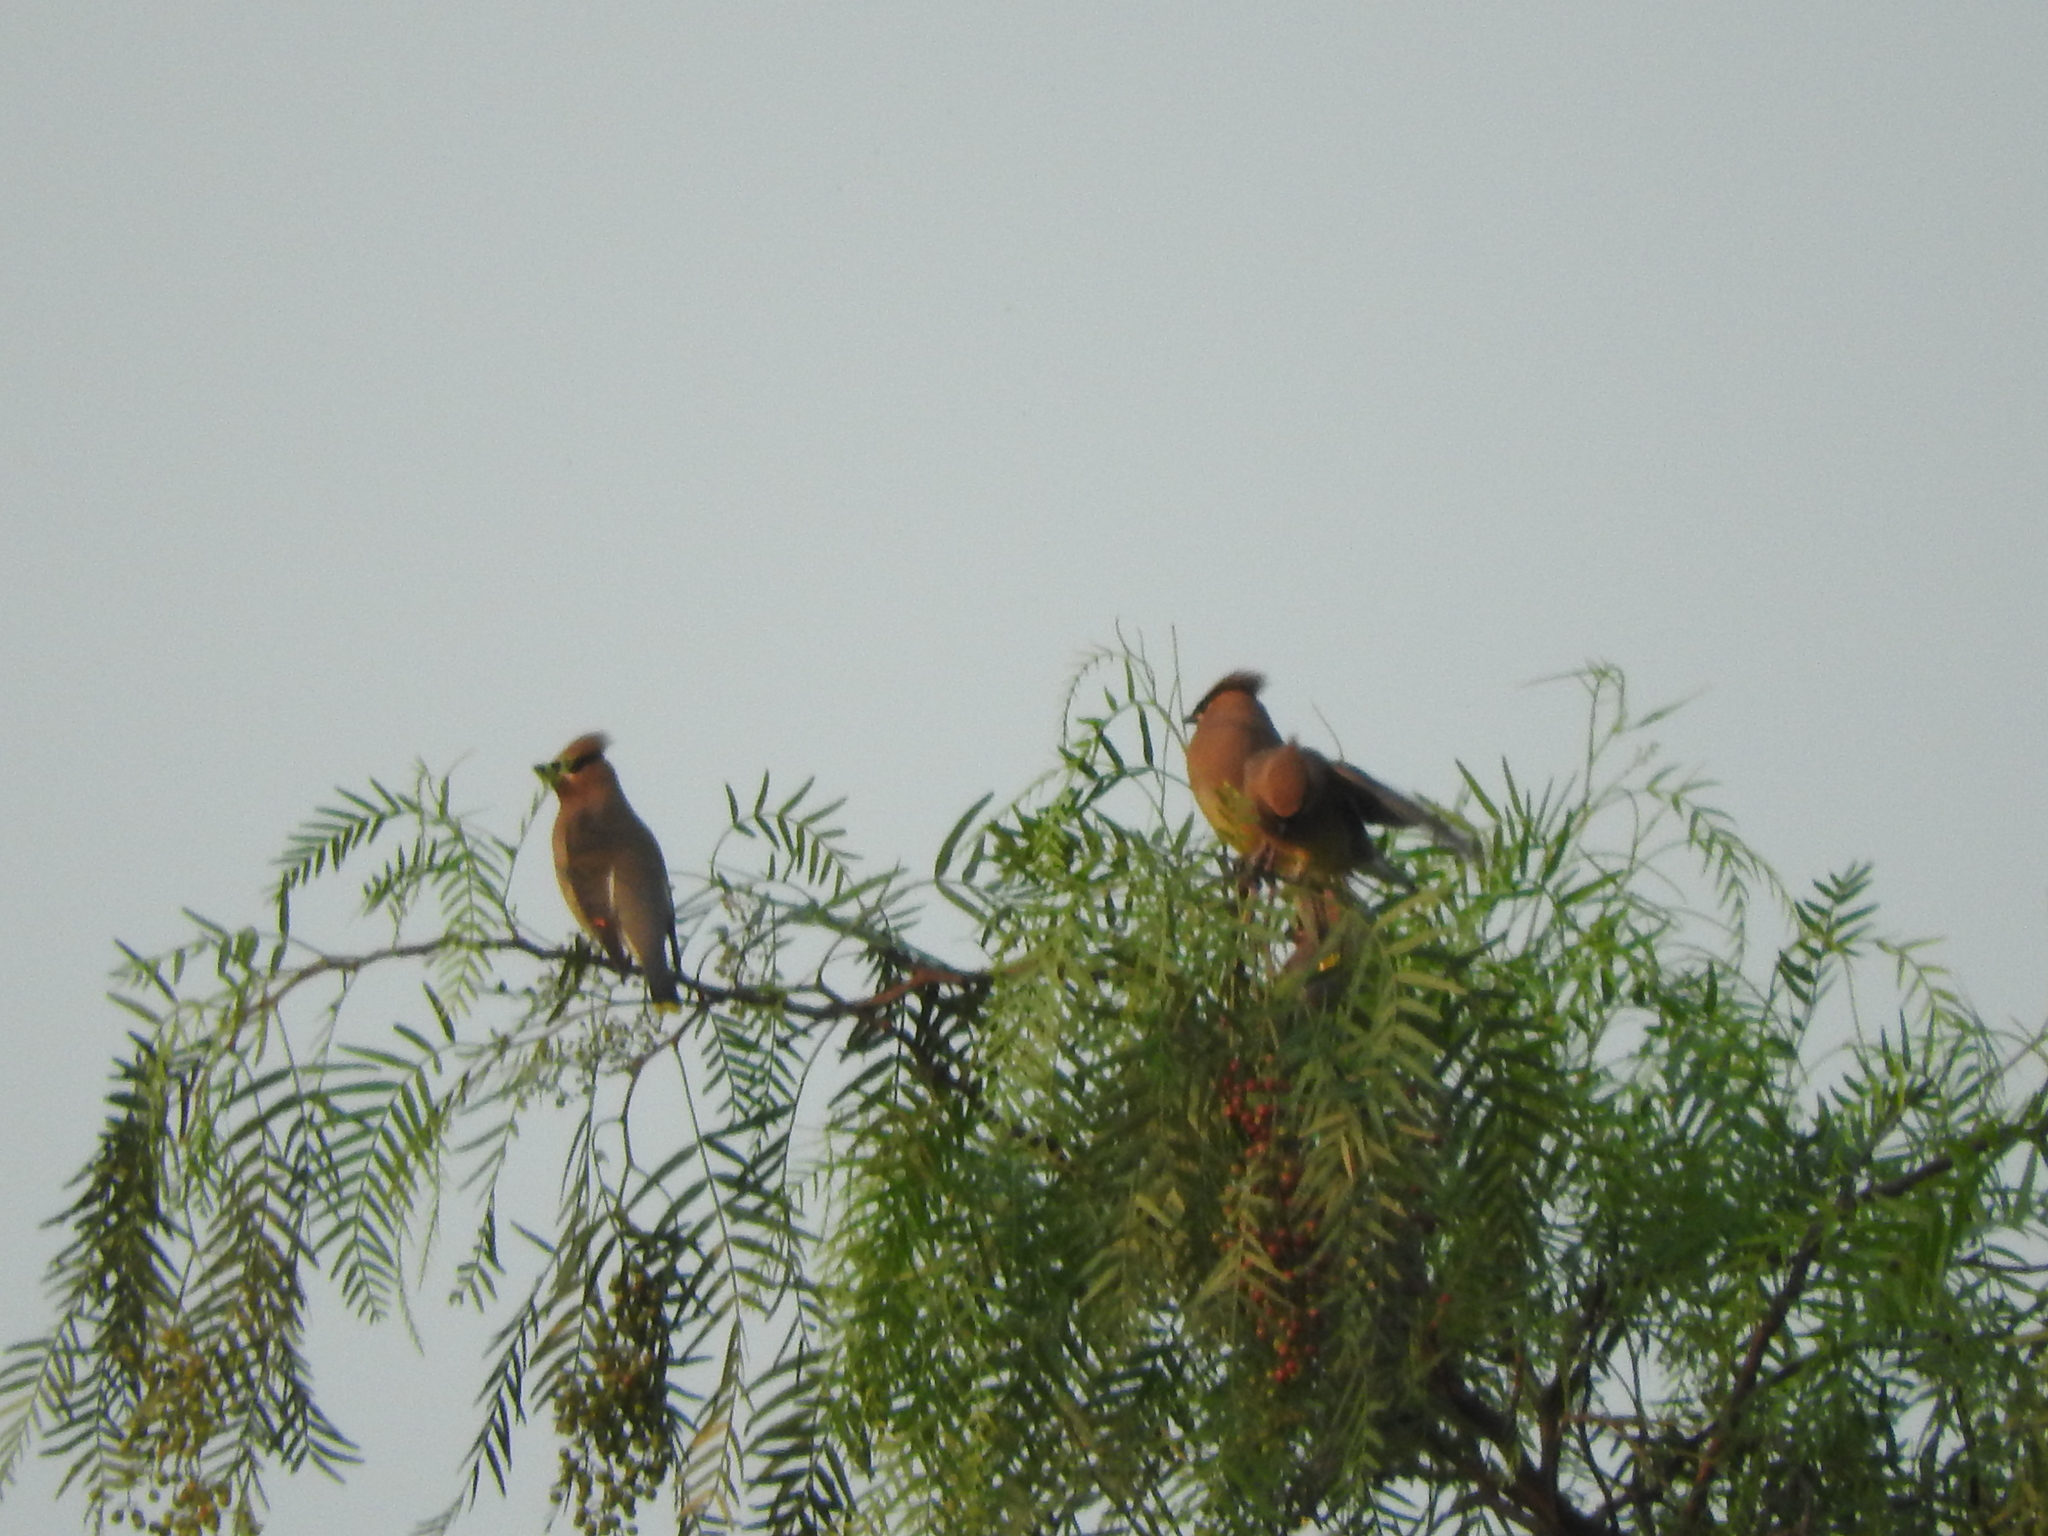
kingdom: Animalia
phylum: Chordata
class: Aves
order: Passeriformes
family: Bombycillidae
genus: Bombycilla
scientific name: Bombycilla cedrorum
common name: Cedar waxwing
